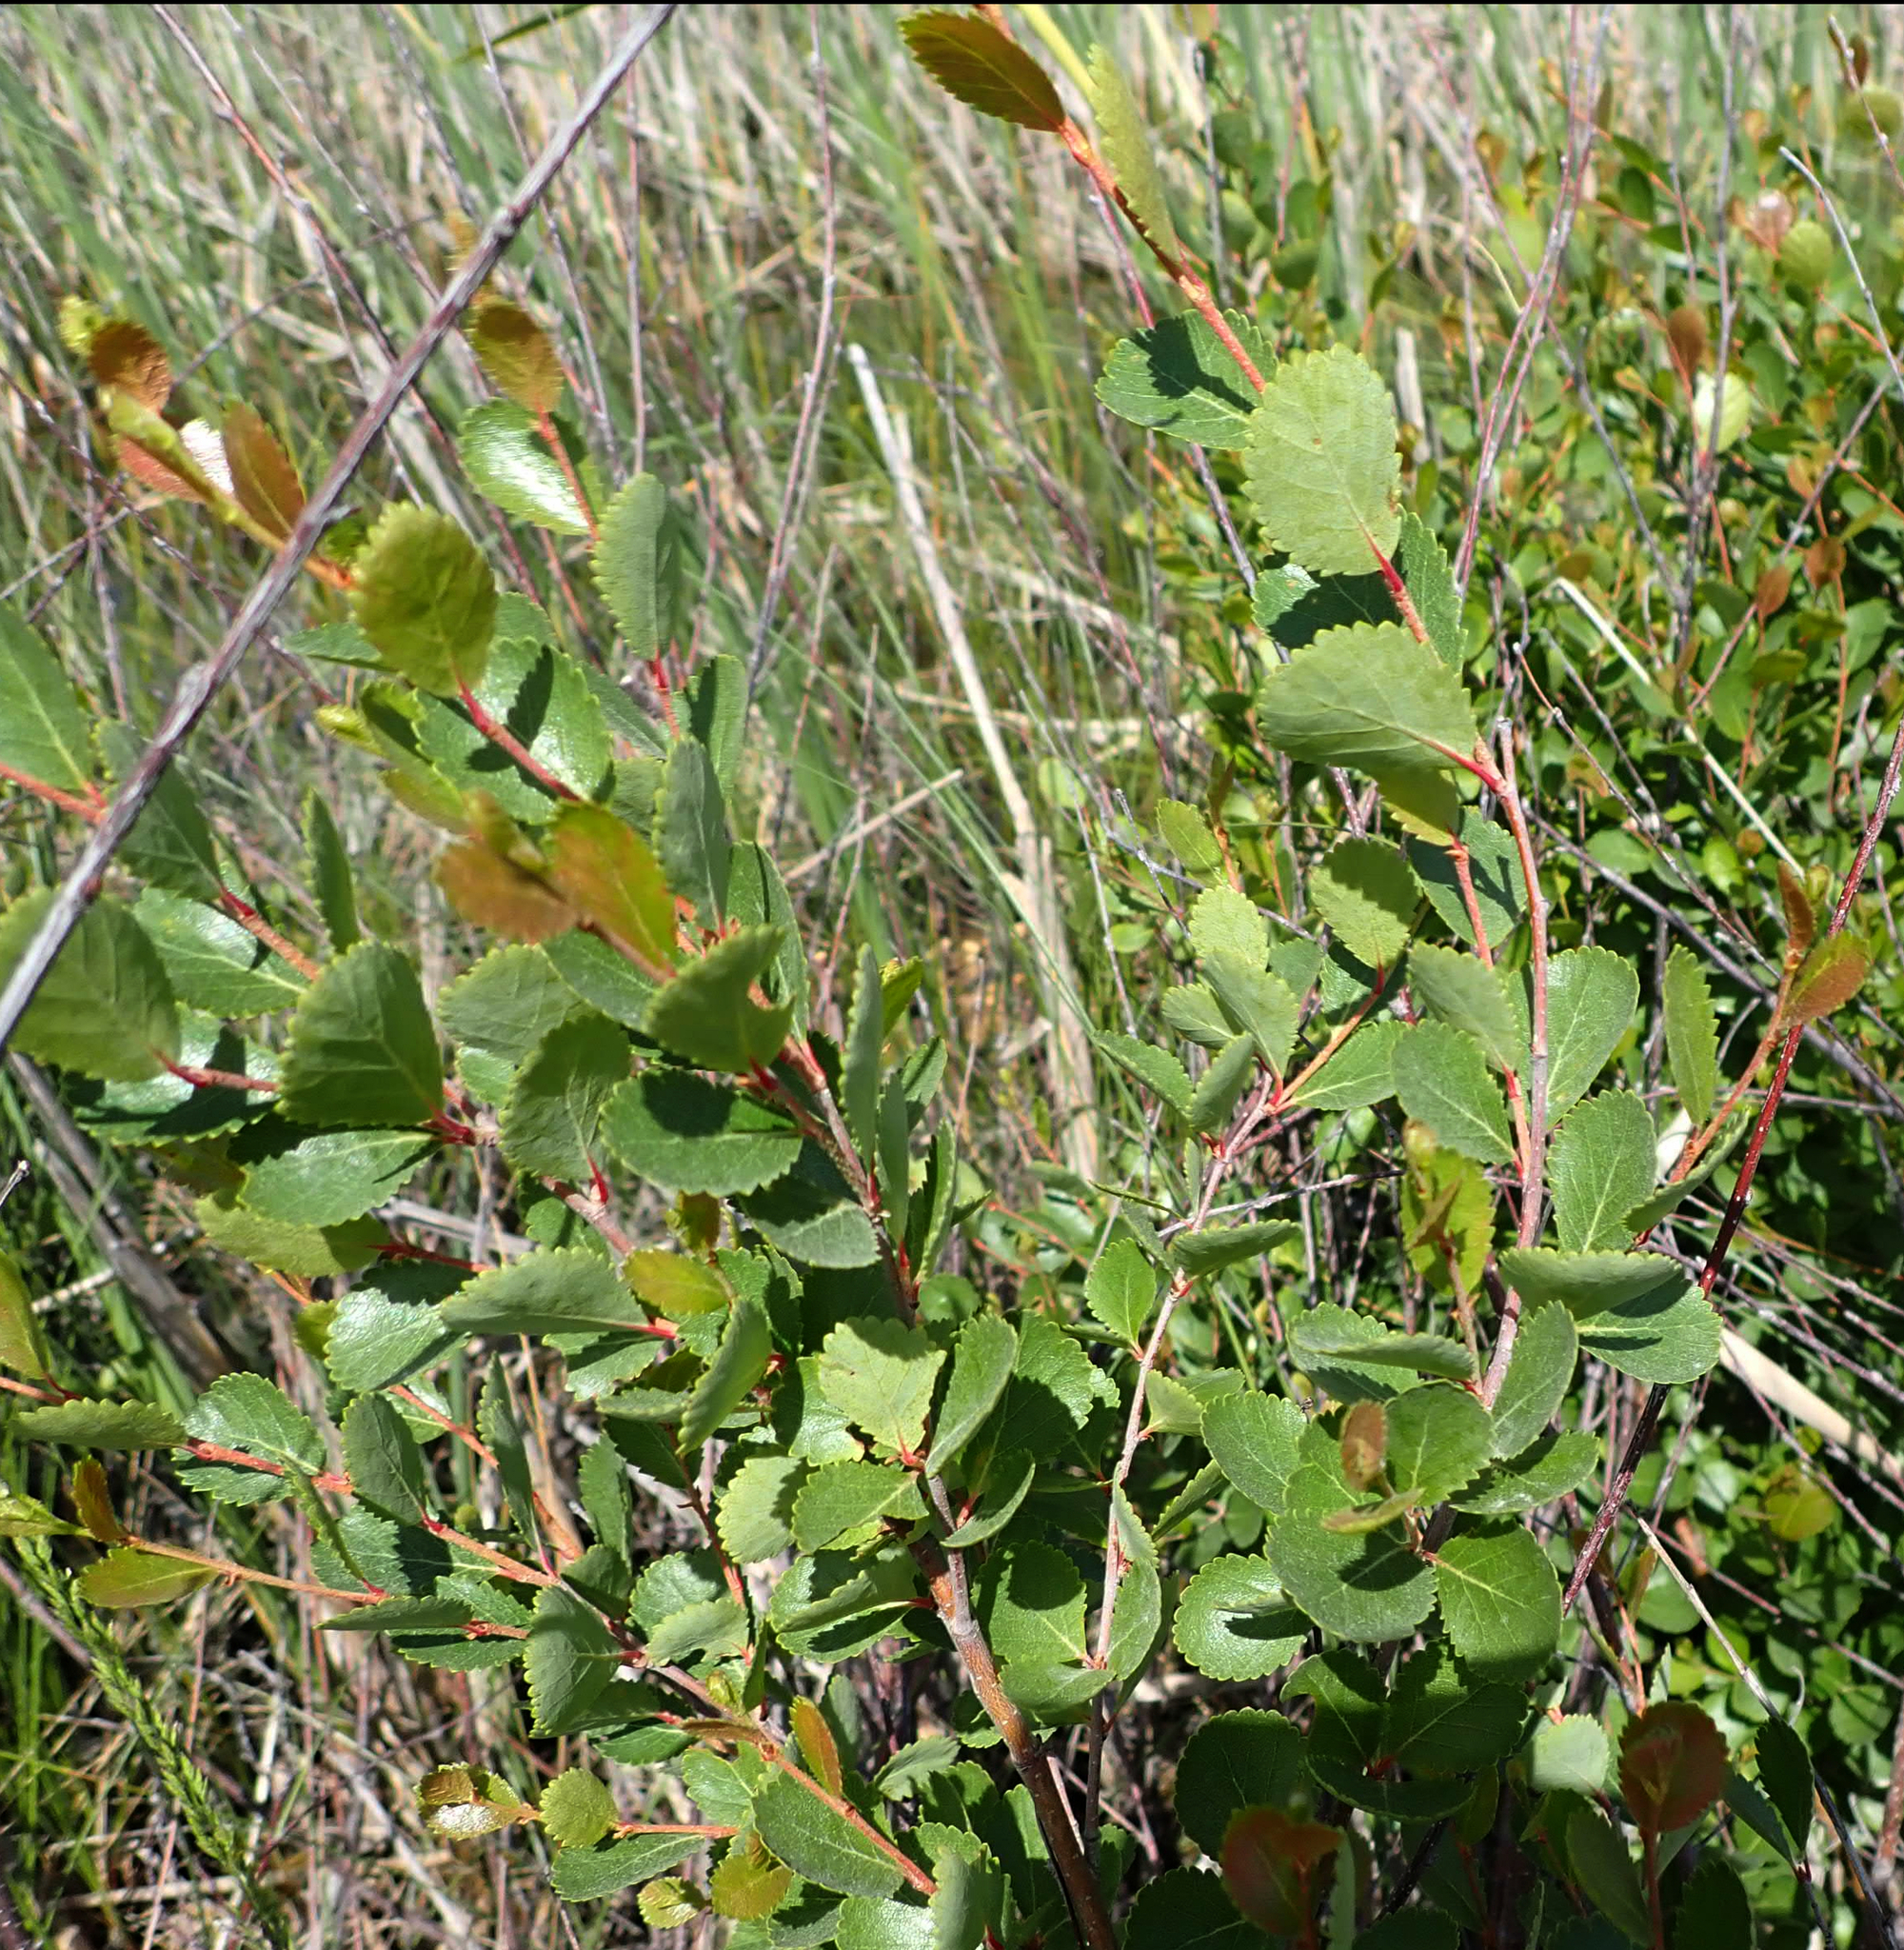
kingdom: Plantae
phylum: Tracheophyta
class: Magnoliopsida
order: Fagales
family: Betulaceae
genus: Betula
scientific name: Betula pumila
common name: Bog birch
